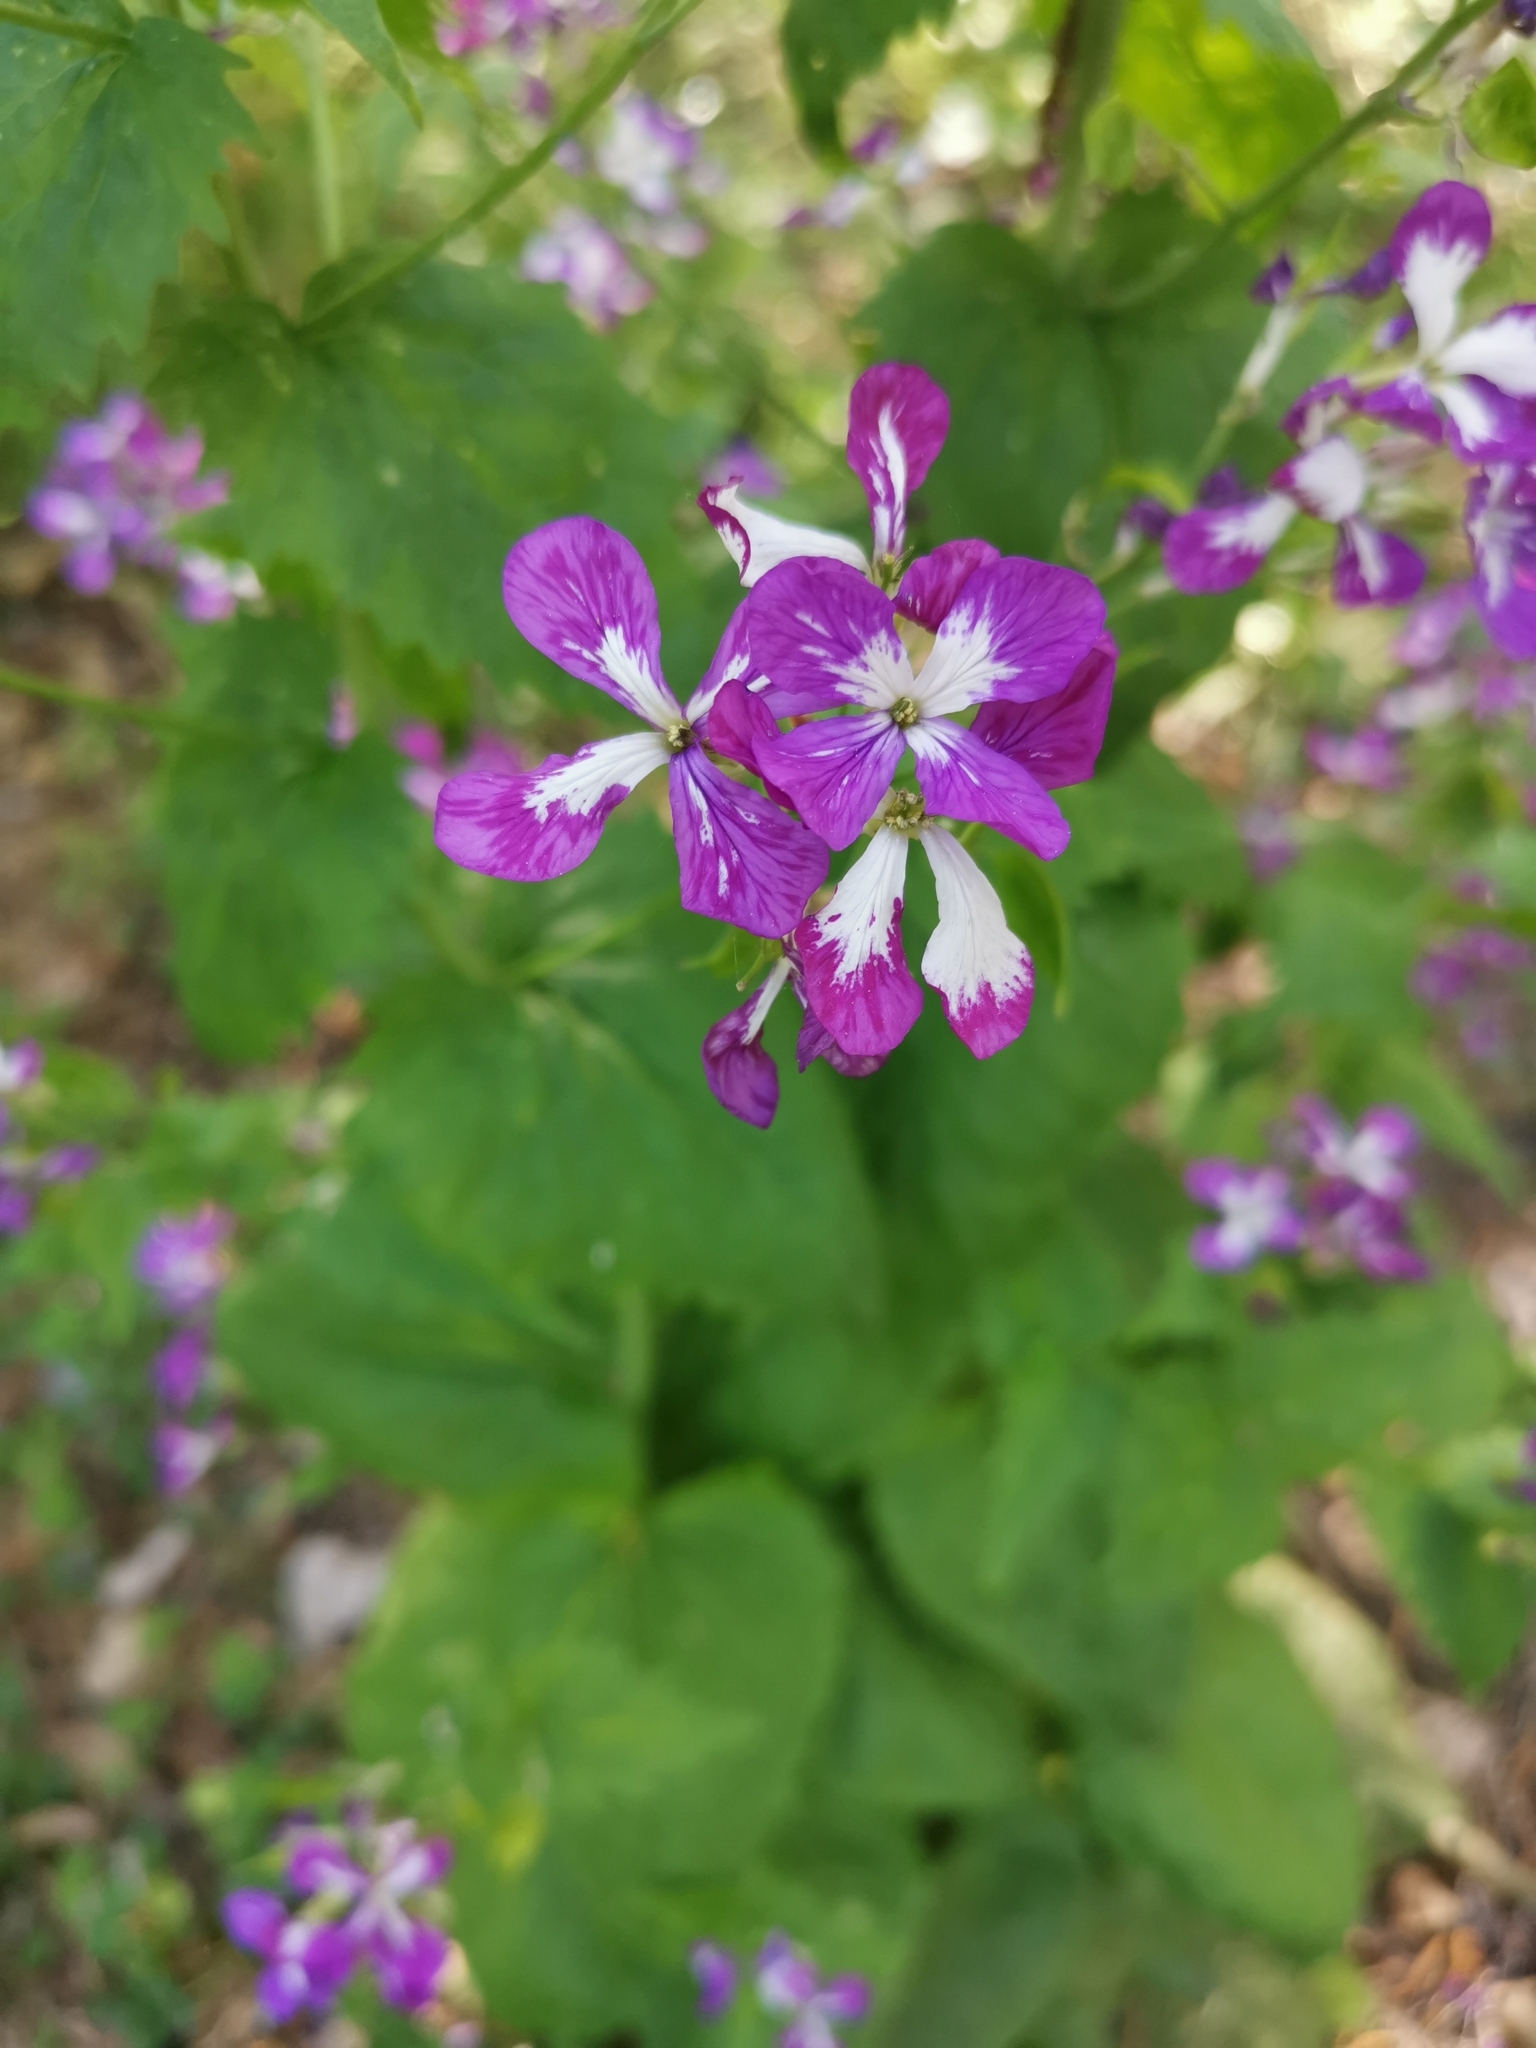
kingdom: Plantae
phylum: Tracheophyta
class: Magnoliopsida
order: Brassicales
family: Brassicaceae
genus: Lunaria
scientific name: Lunaria annua
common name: Honesty
